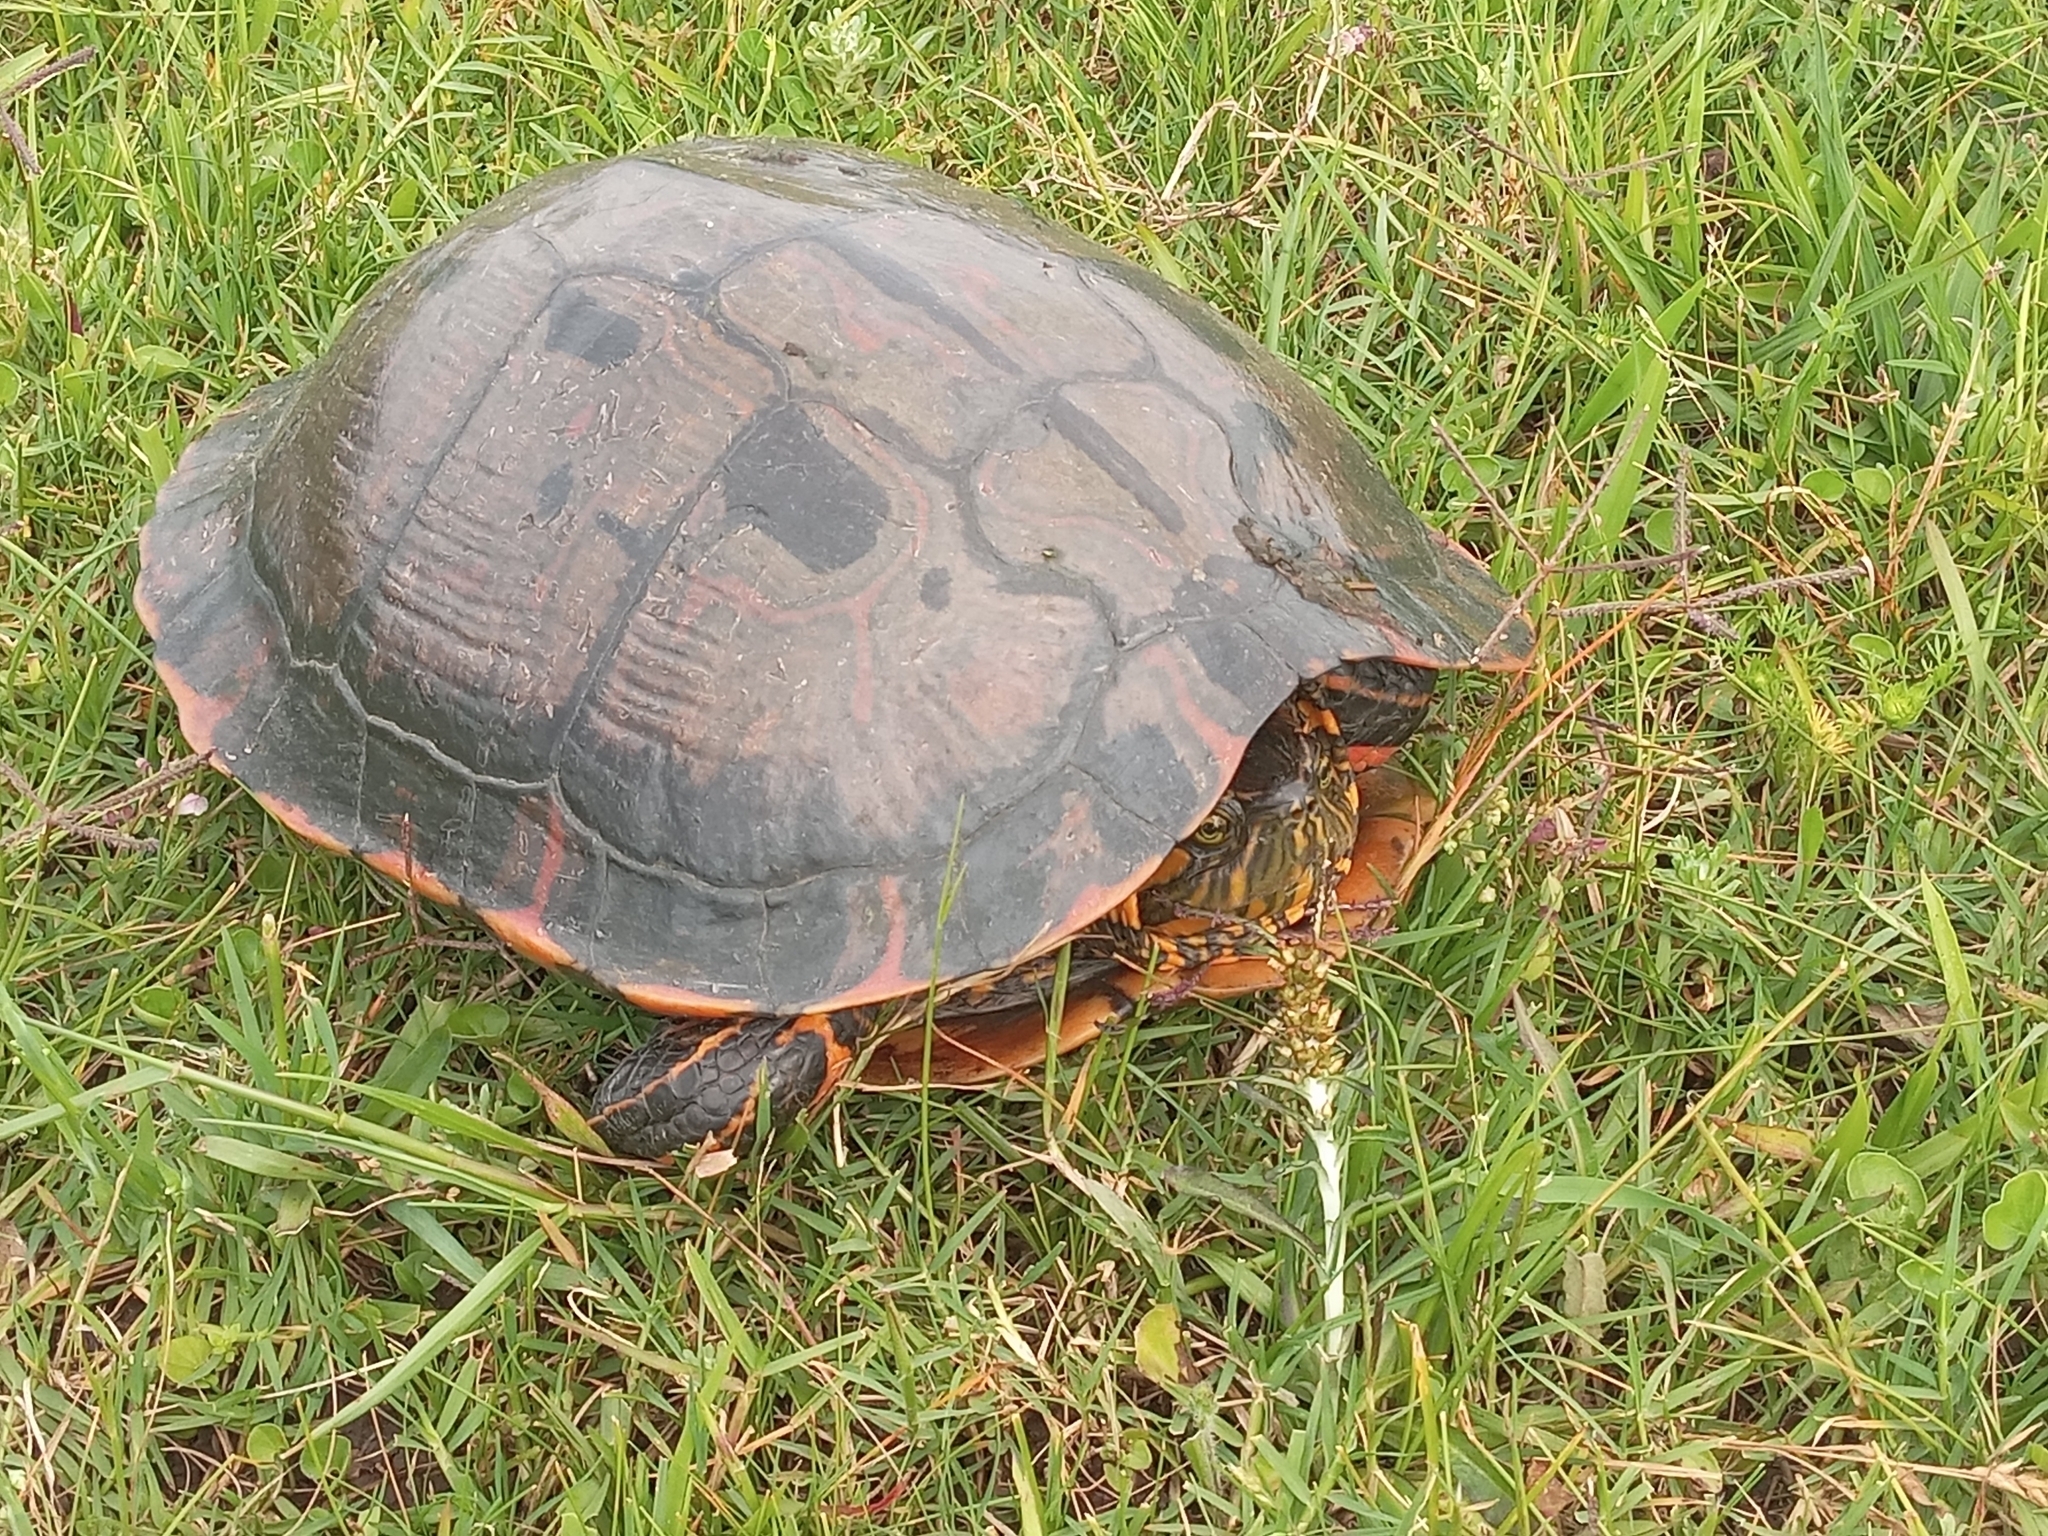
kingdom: Animalia
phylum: Chordata
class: Testudines
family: Emydidae
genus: Trachemys
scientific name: Trachemys dorbigni
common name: Black-bellied slider
